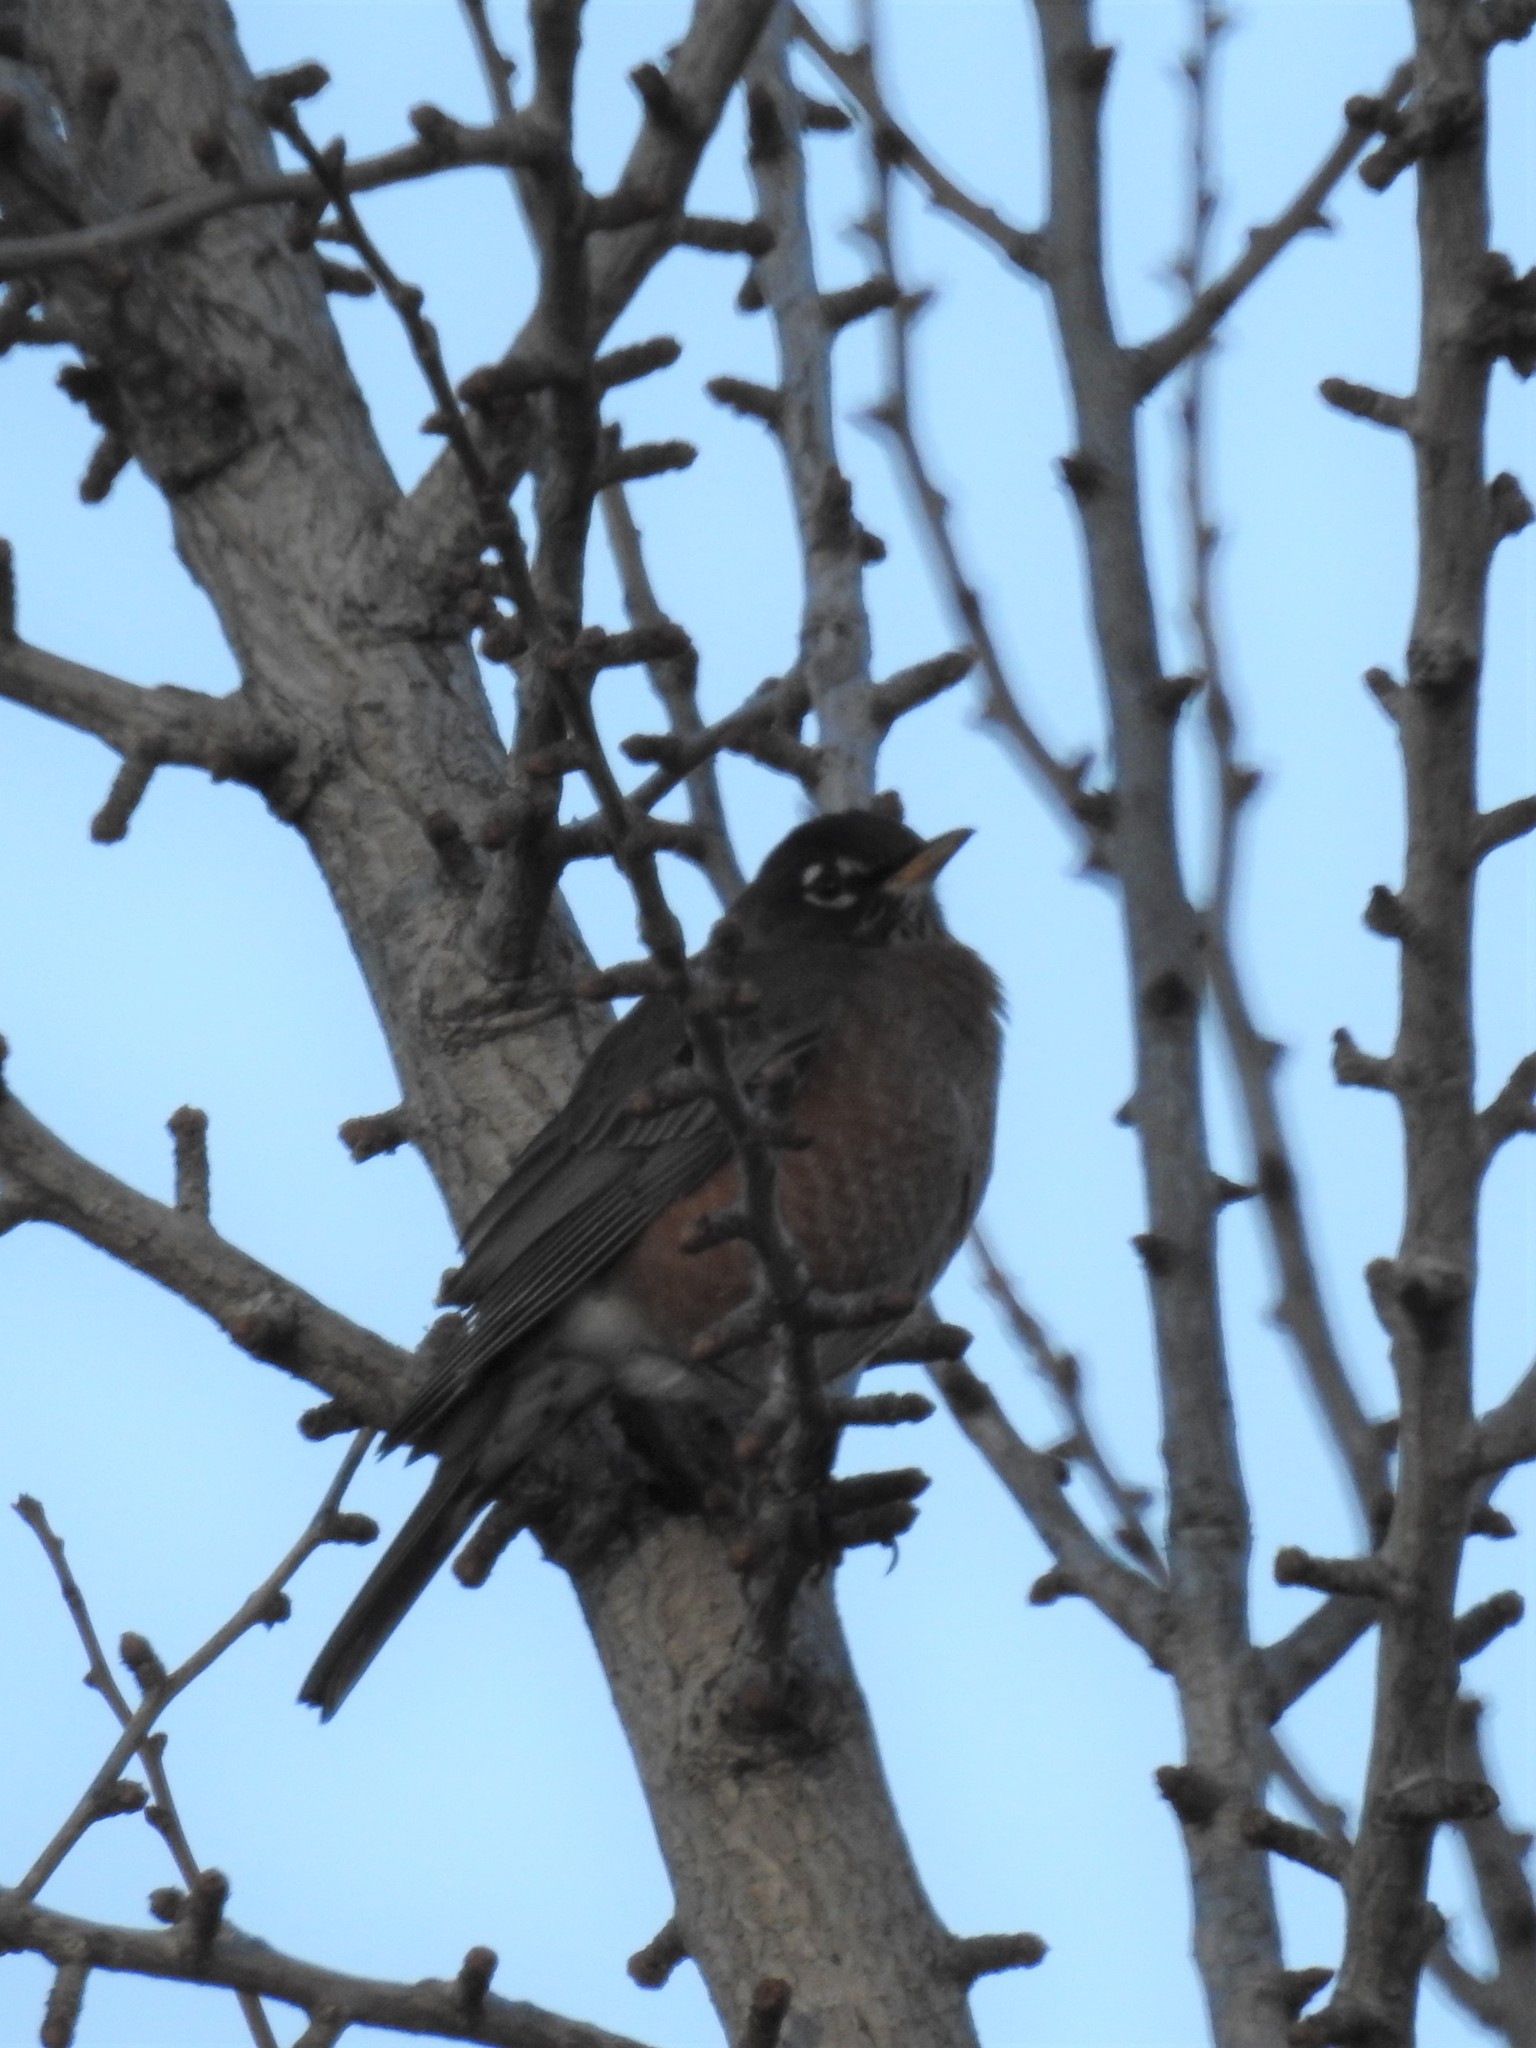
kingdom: Animalia
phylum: Chordata
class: Aves
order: Passeriformes
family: Turdidae
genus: Turdus
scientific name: Turdus migratorius
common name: American robin
